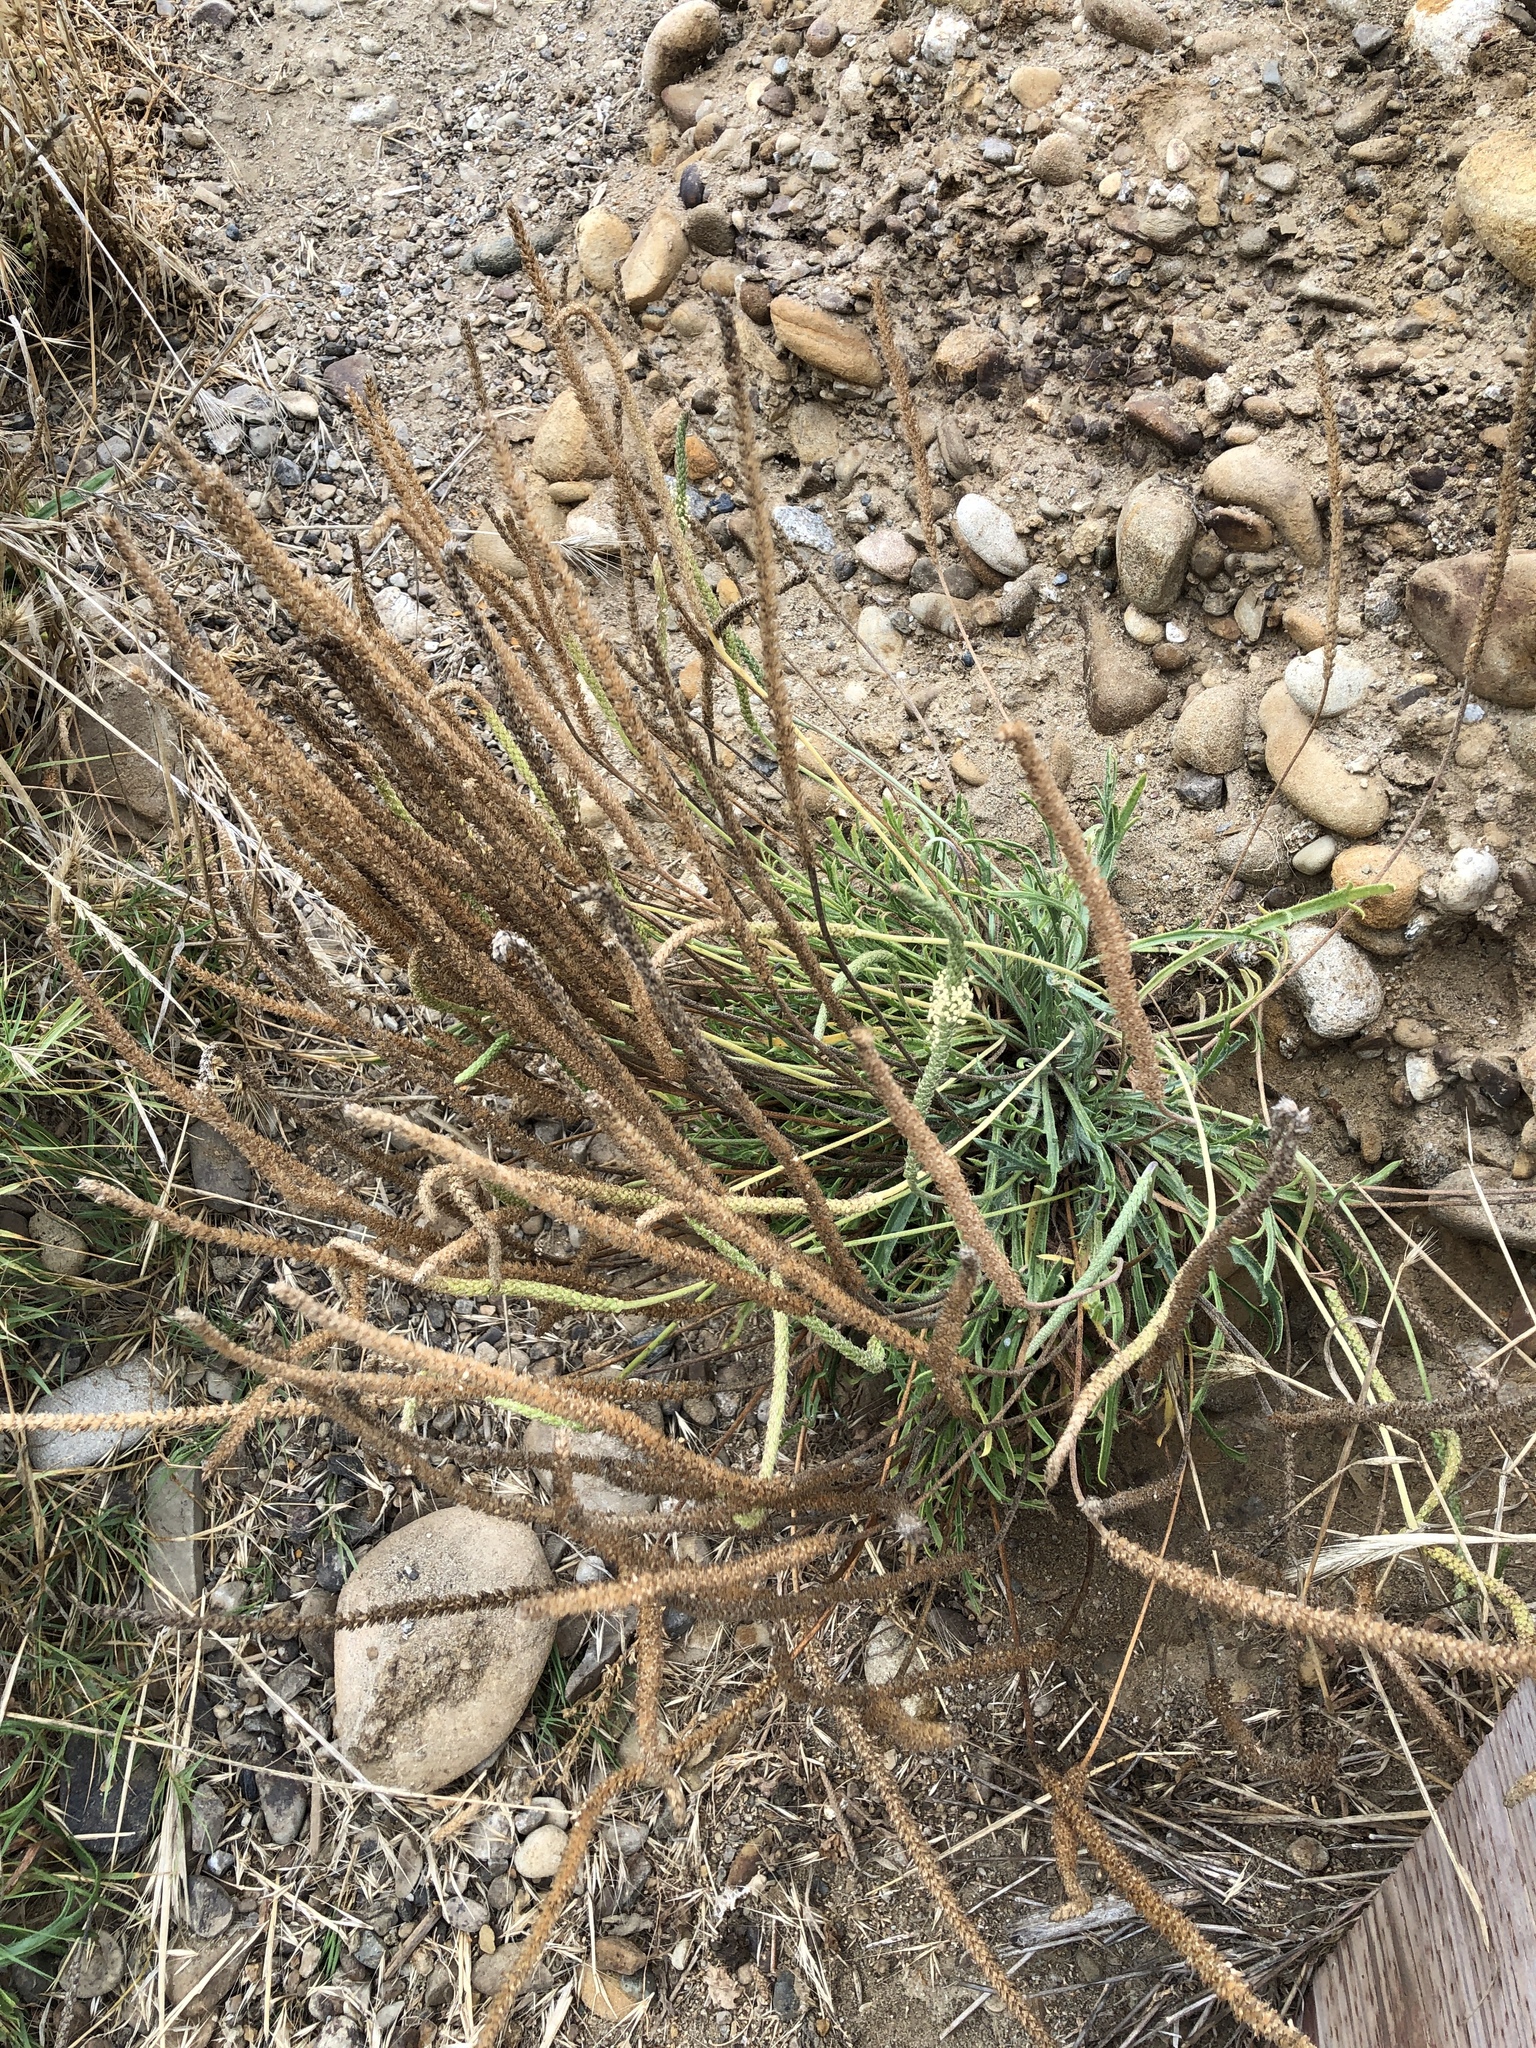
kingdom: Plantae
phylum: Tracheophyta
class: Magnoliopsida
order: Lamiales
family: Plantaginaceae
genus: Plantago
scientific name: Plantago coronopus
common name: Buck's-horn plantain
